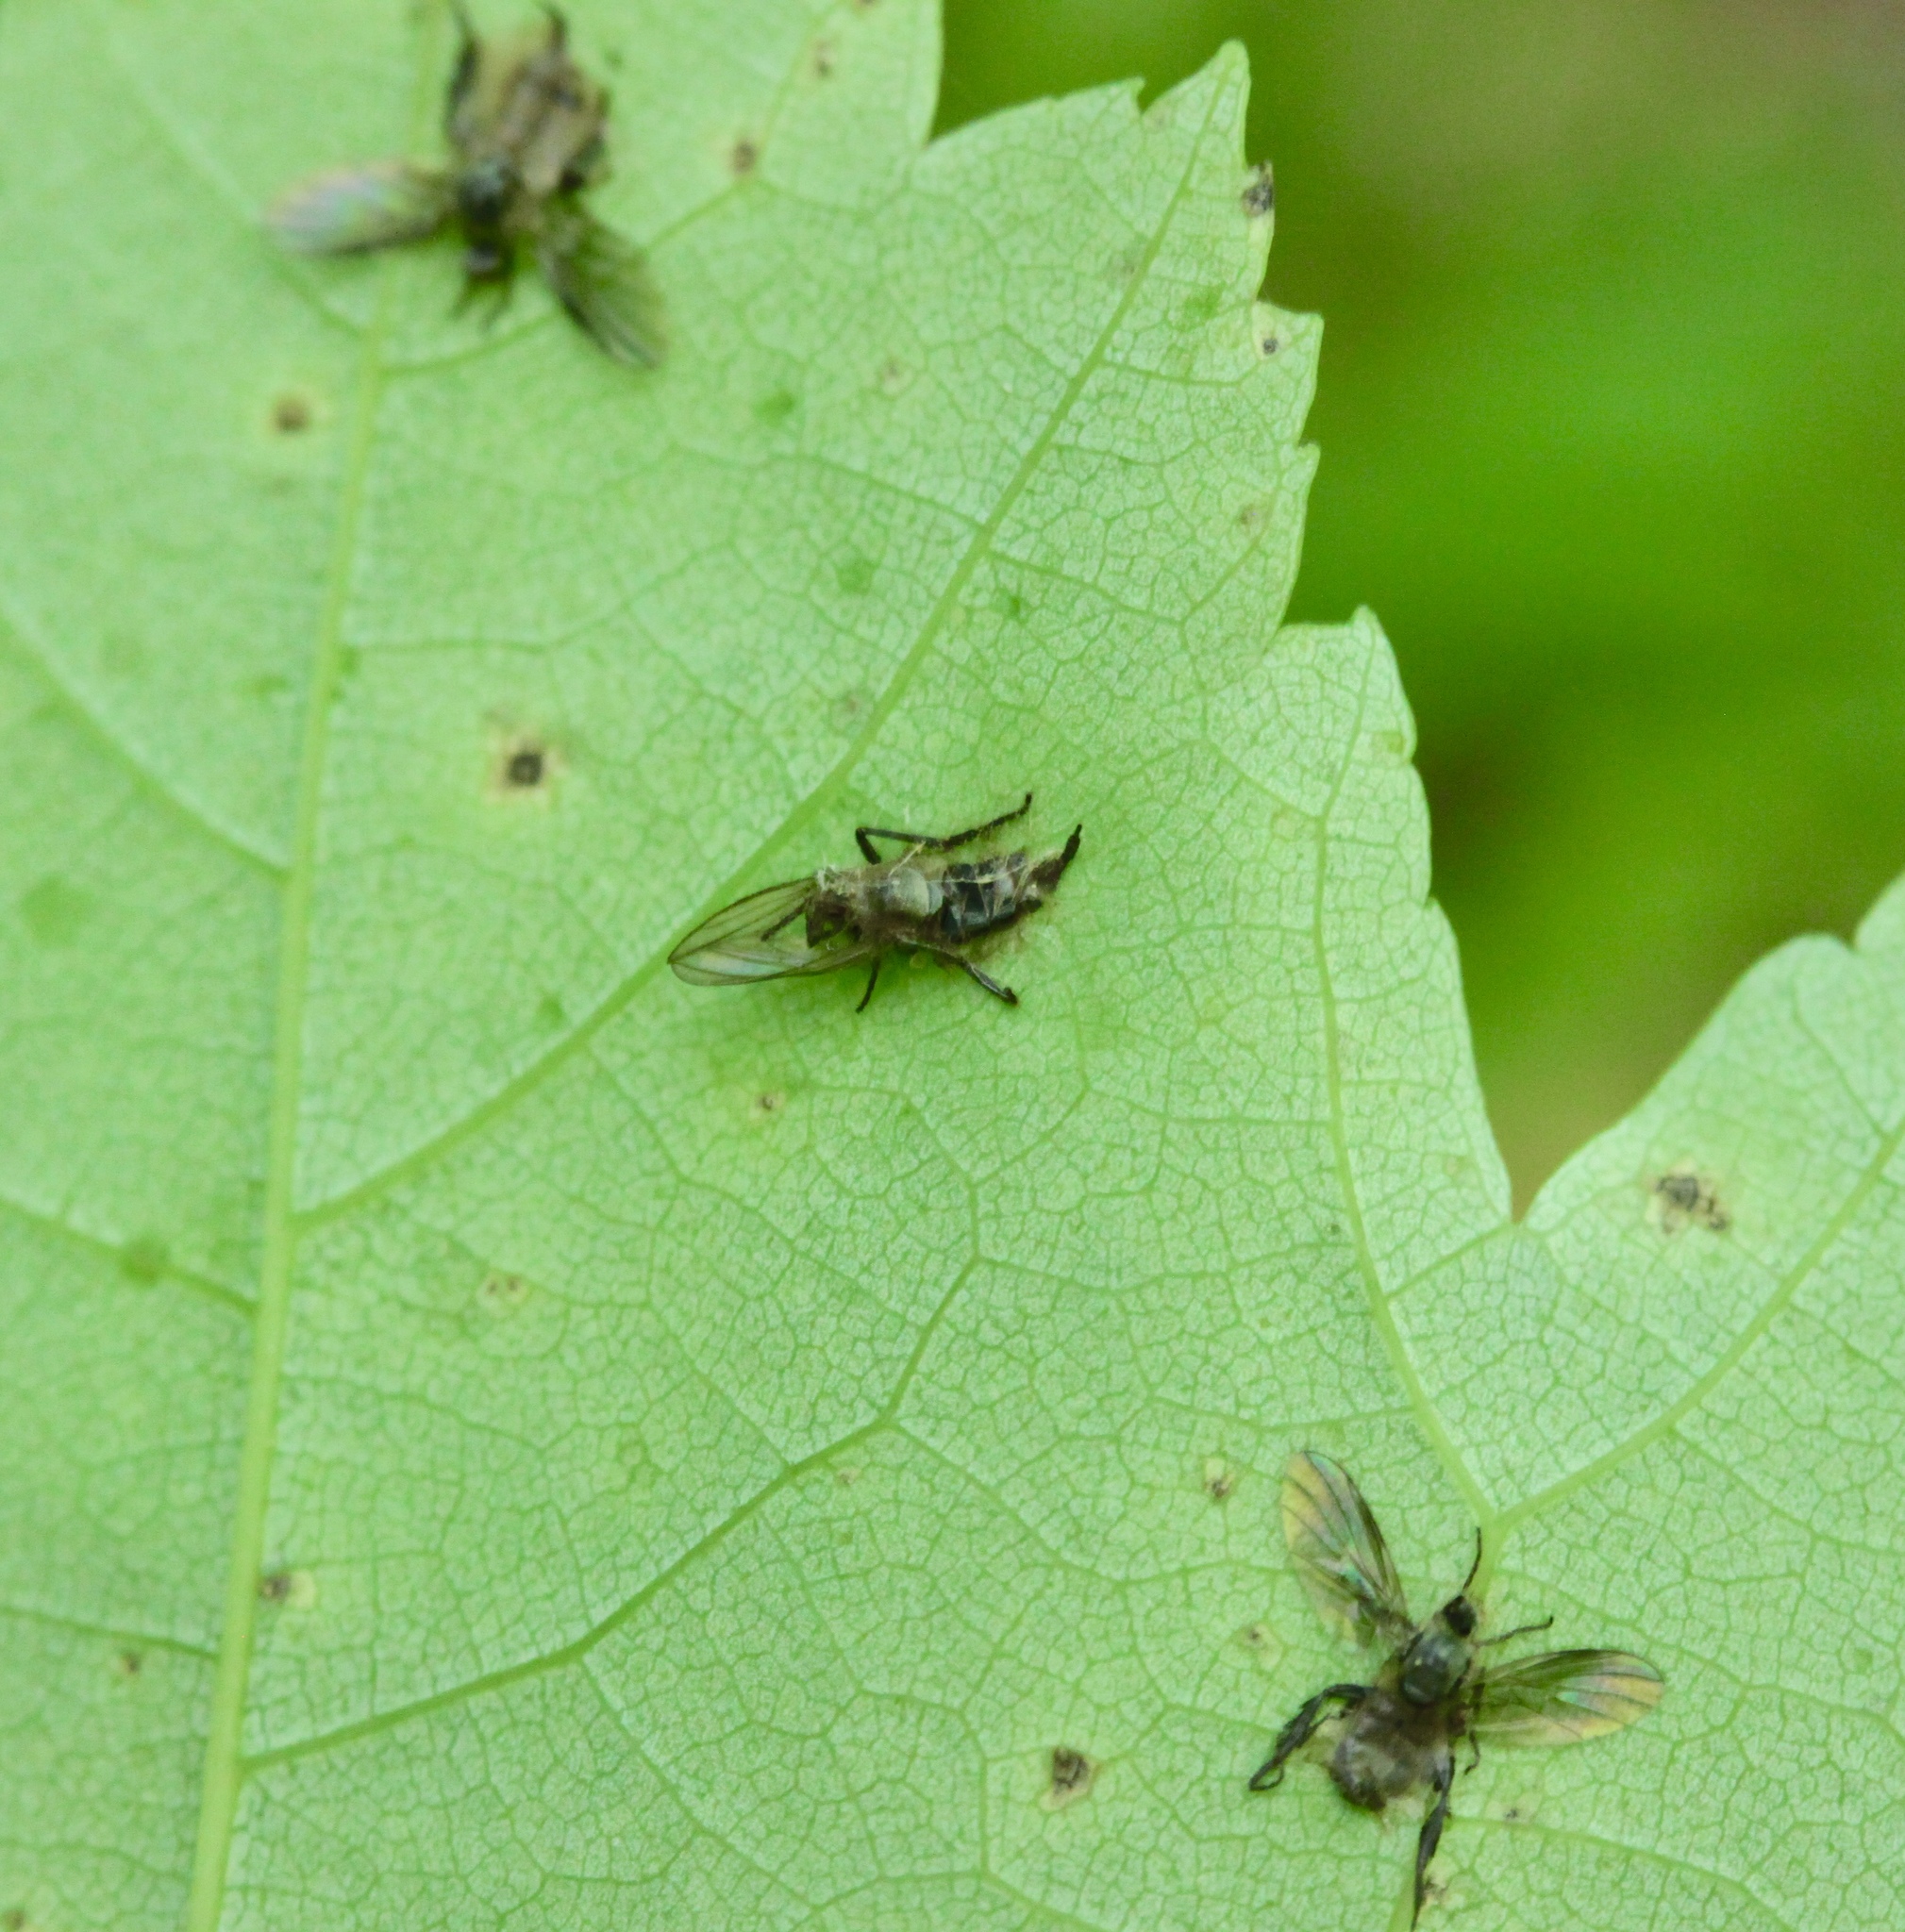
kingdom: Fungi
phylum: Entomophthoromycota
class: Entomophthoromycetes
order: Entomophthorales
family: Entomophthoraceae
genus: Furia
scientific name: Furia ithacensis
